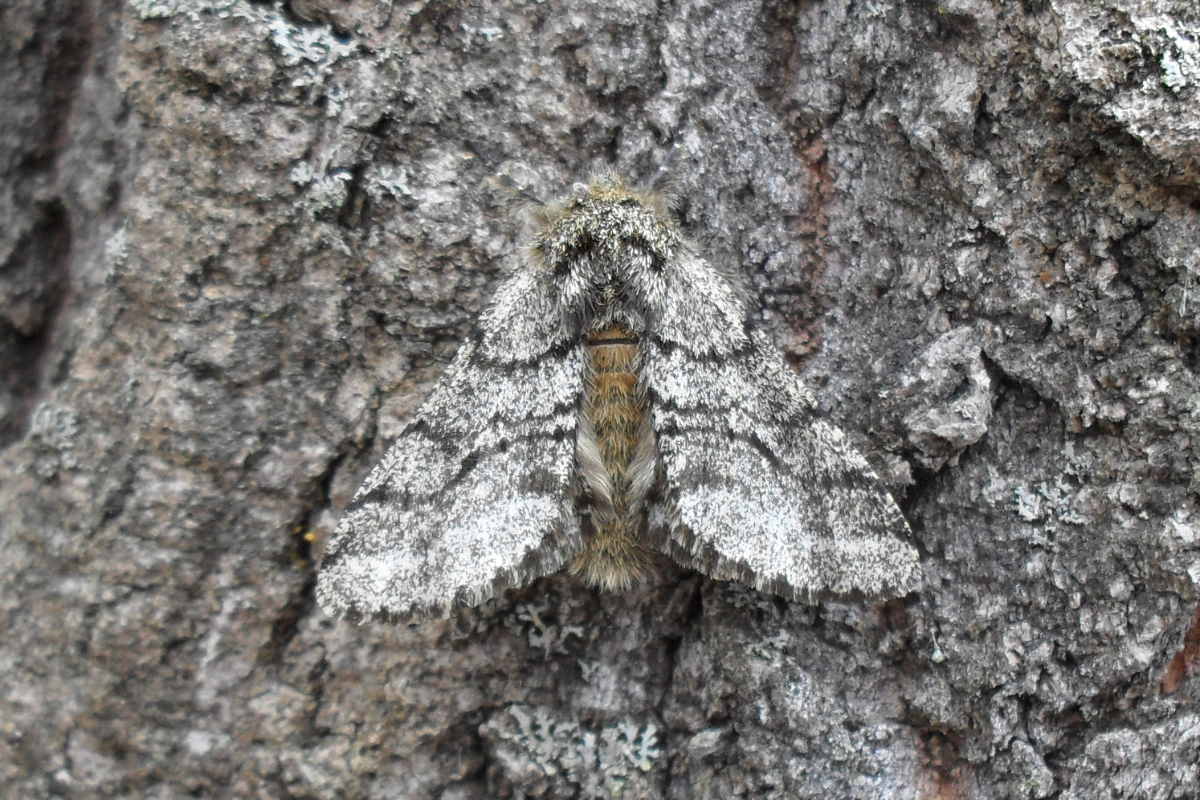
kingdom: Animalia
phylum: Arthropoda
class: Insecta
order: Lepidoptera
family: Geometridae
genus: Lycia
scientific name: Lycia hirtaria
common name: Brindled beauty
